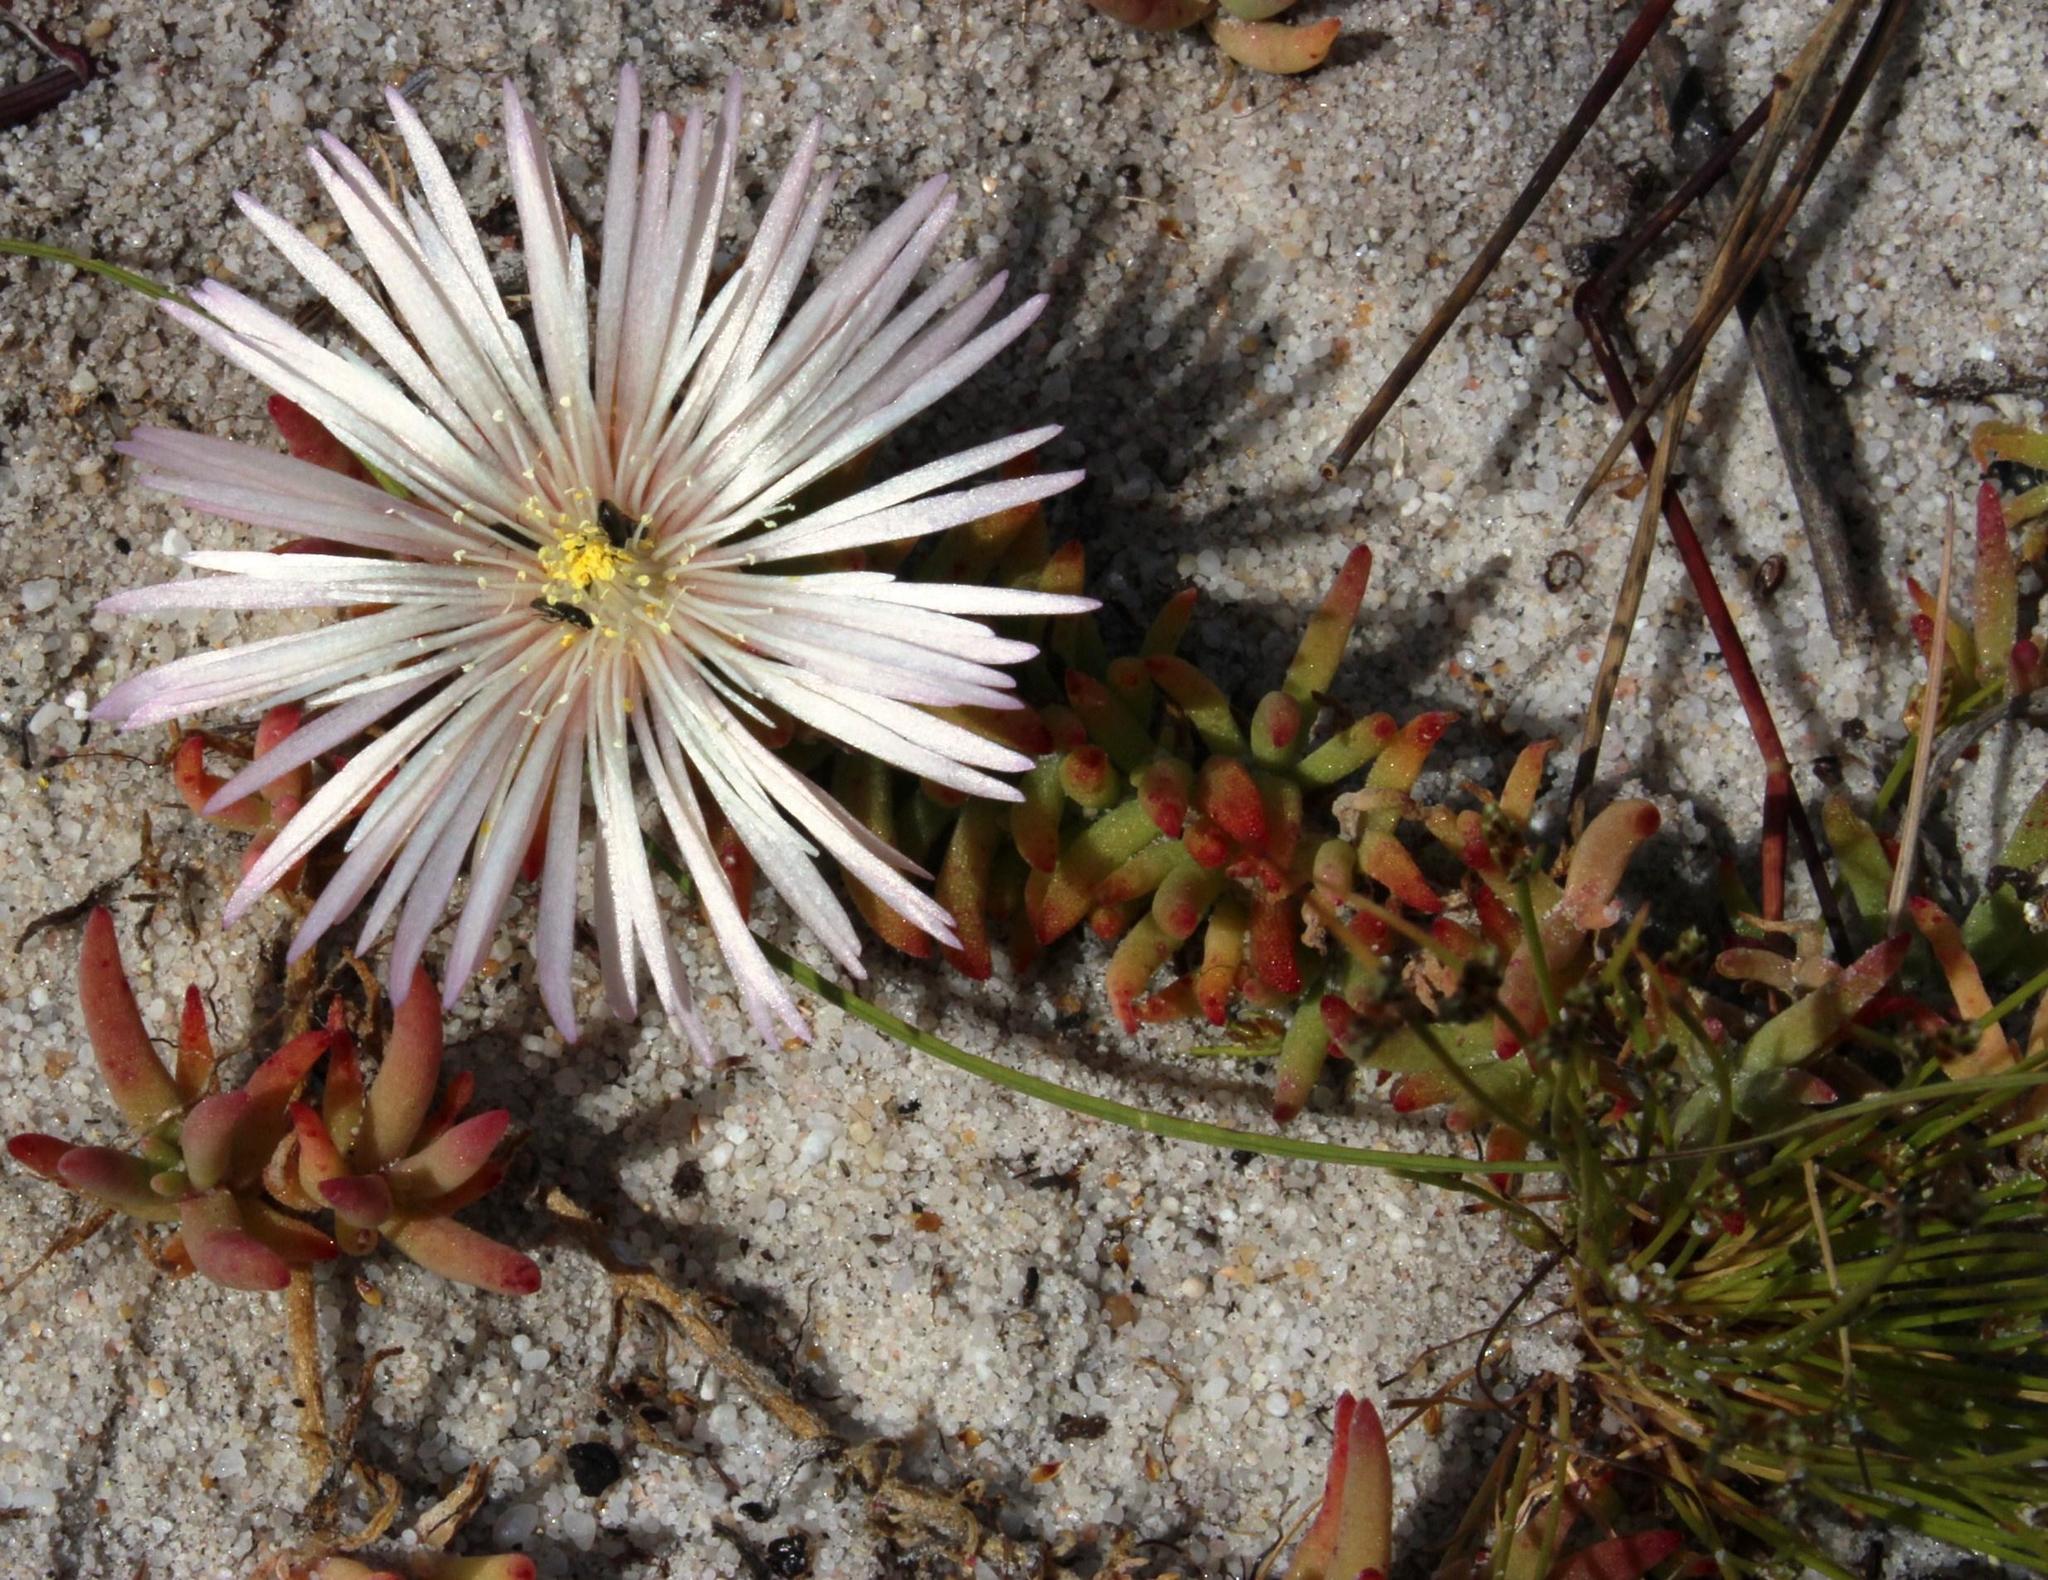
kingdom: Plantae
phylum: Tracheophyta
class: Magnoliopsida
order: Caryophyllales
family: Aizoaceae
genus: Mesembryanthemum
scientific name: Mesembryanthemum canaliculatum
